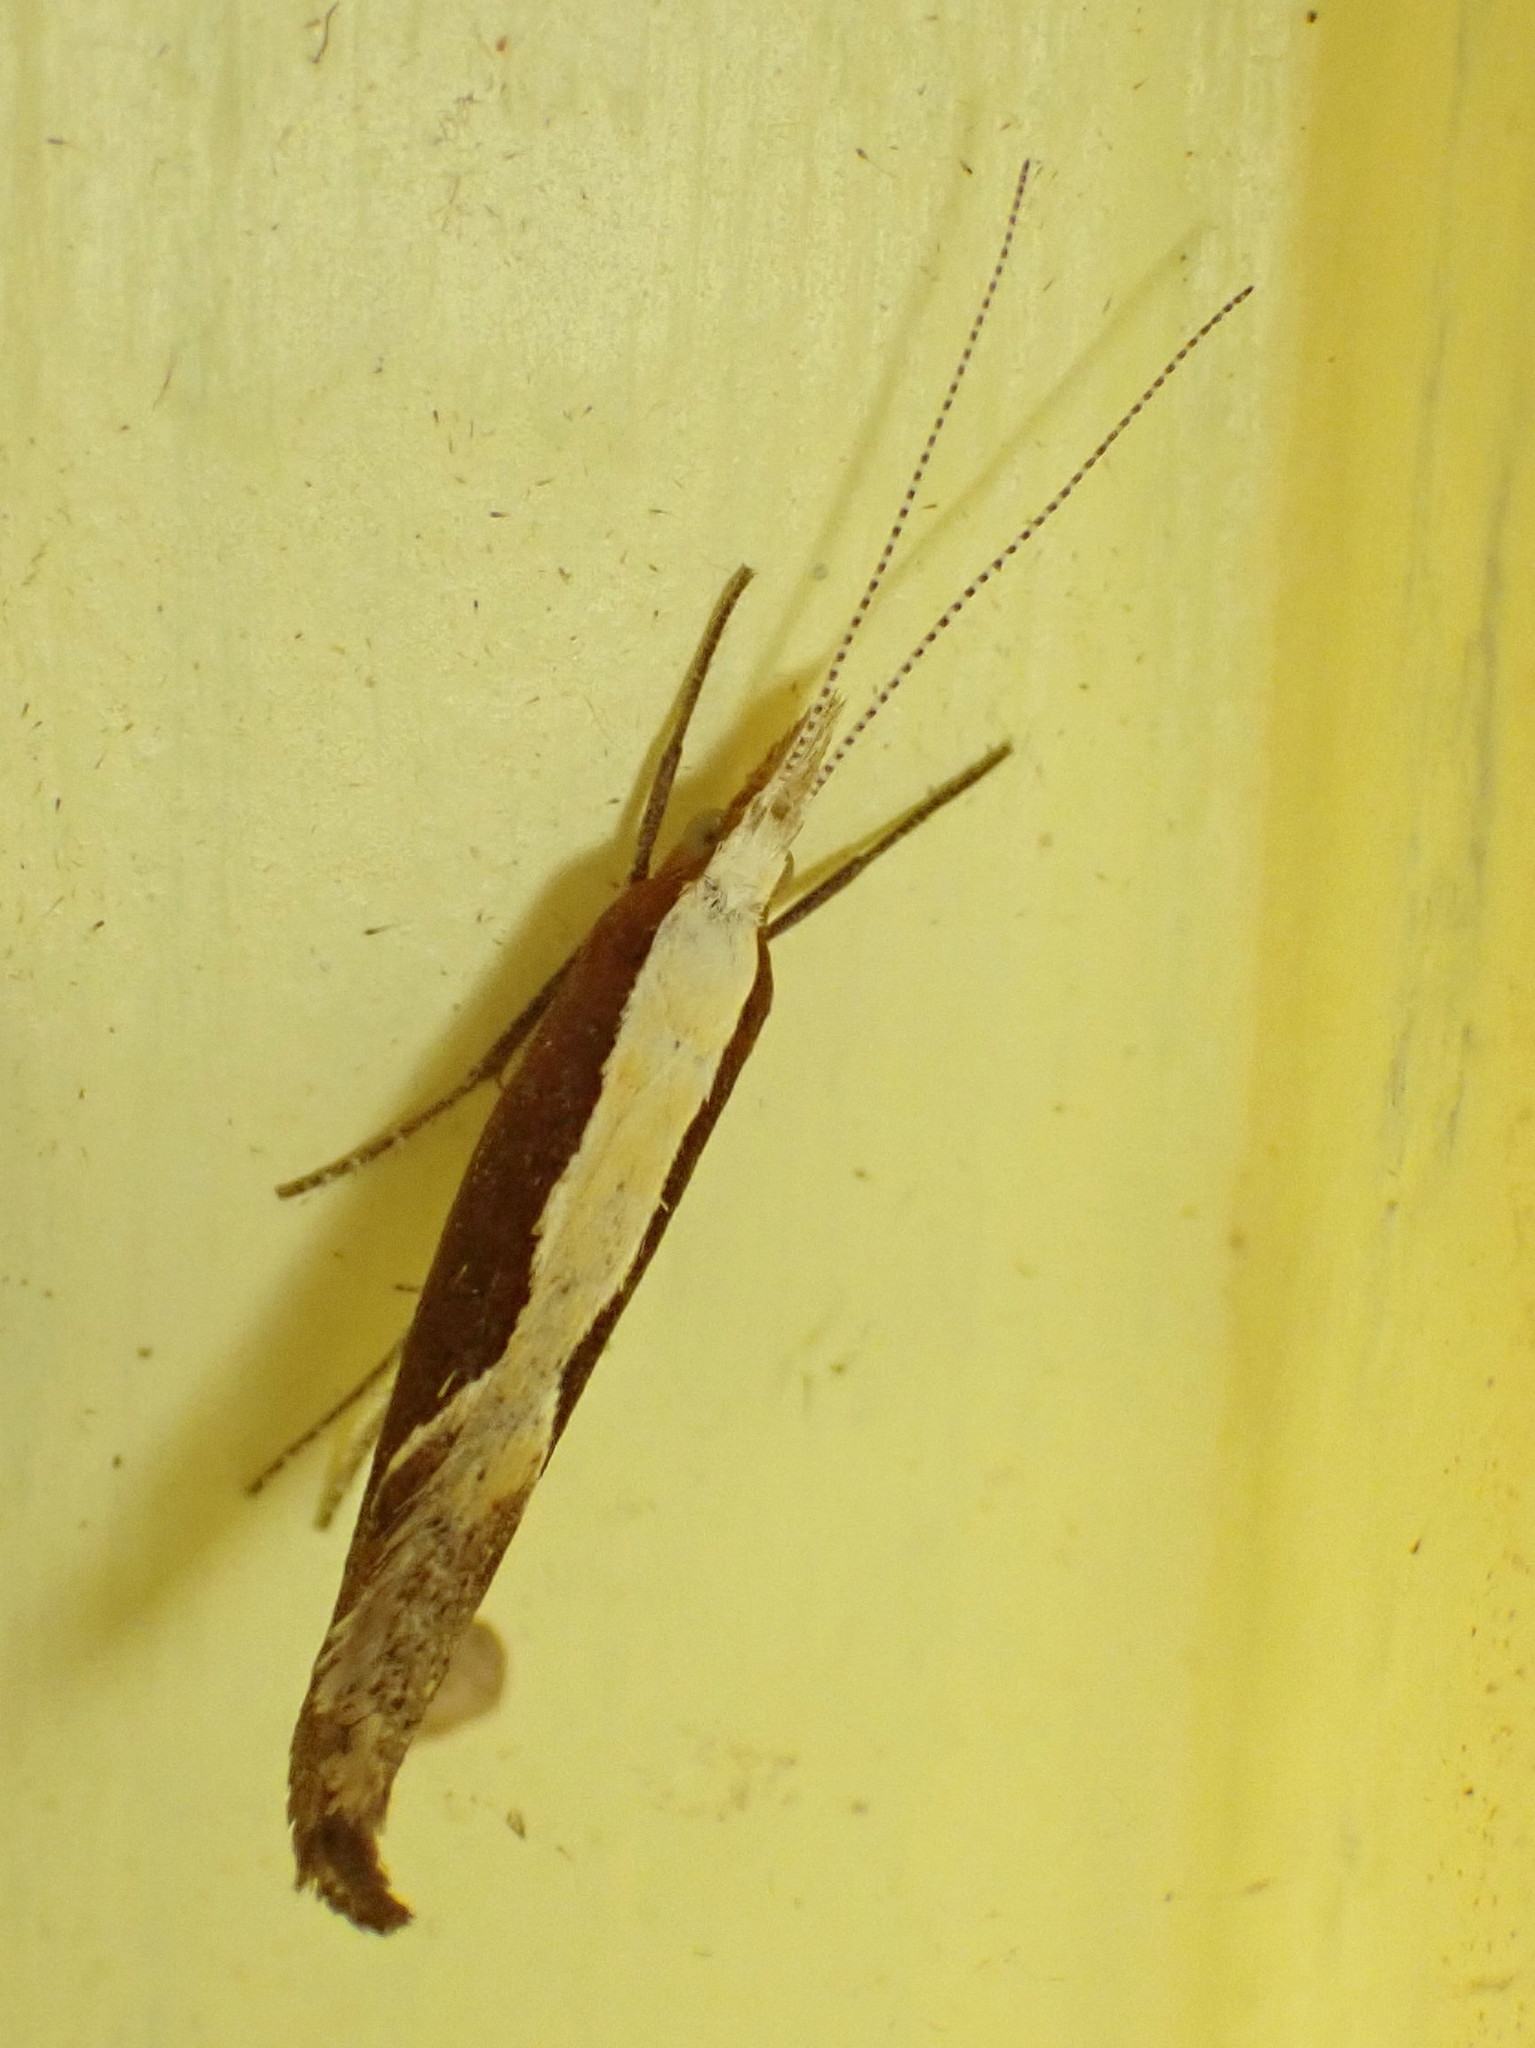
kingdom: Animalia
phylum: Arthropoda
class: Insecta
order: Lepidoptera
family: Ypsolophidae
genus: Ypsolopha
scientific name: Ypsolopha dentella
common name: Honeysuckle moth
